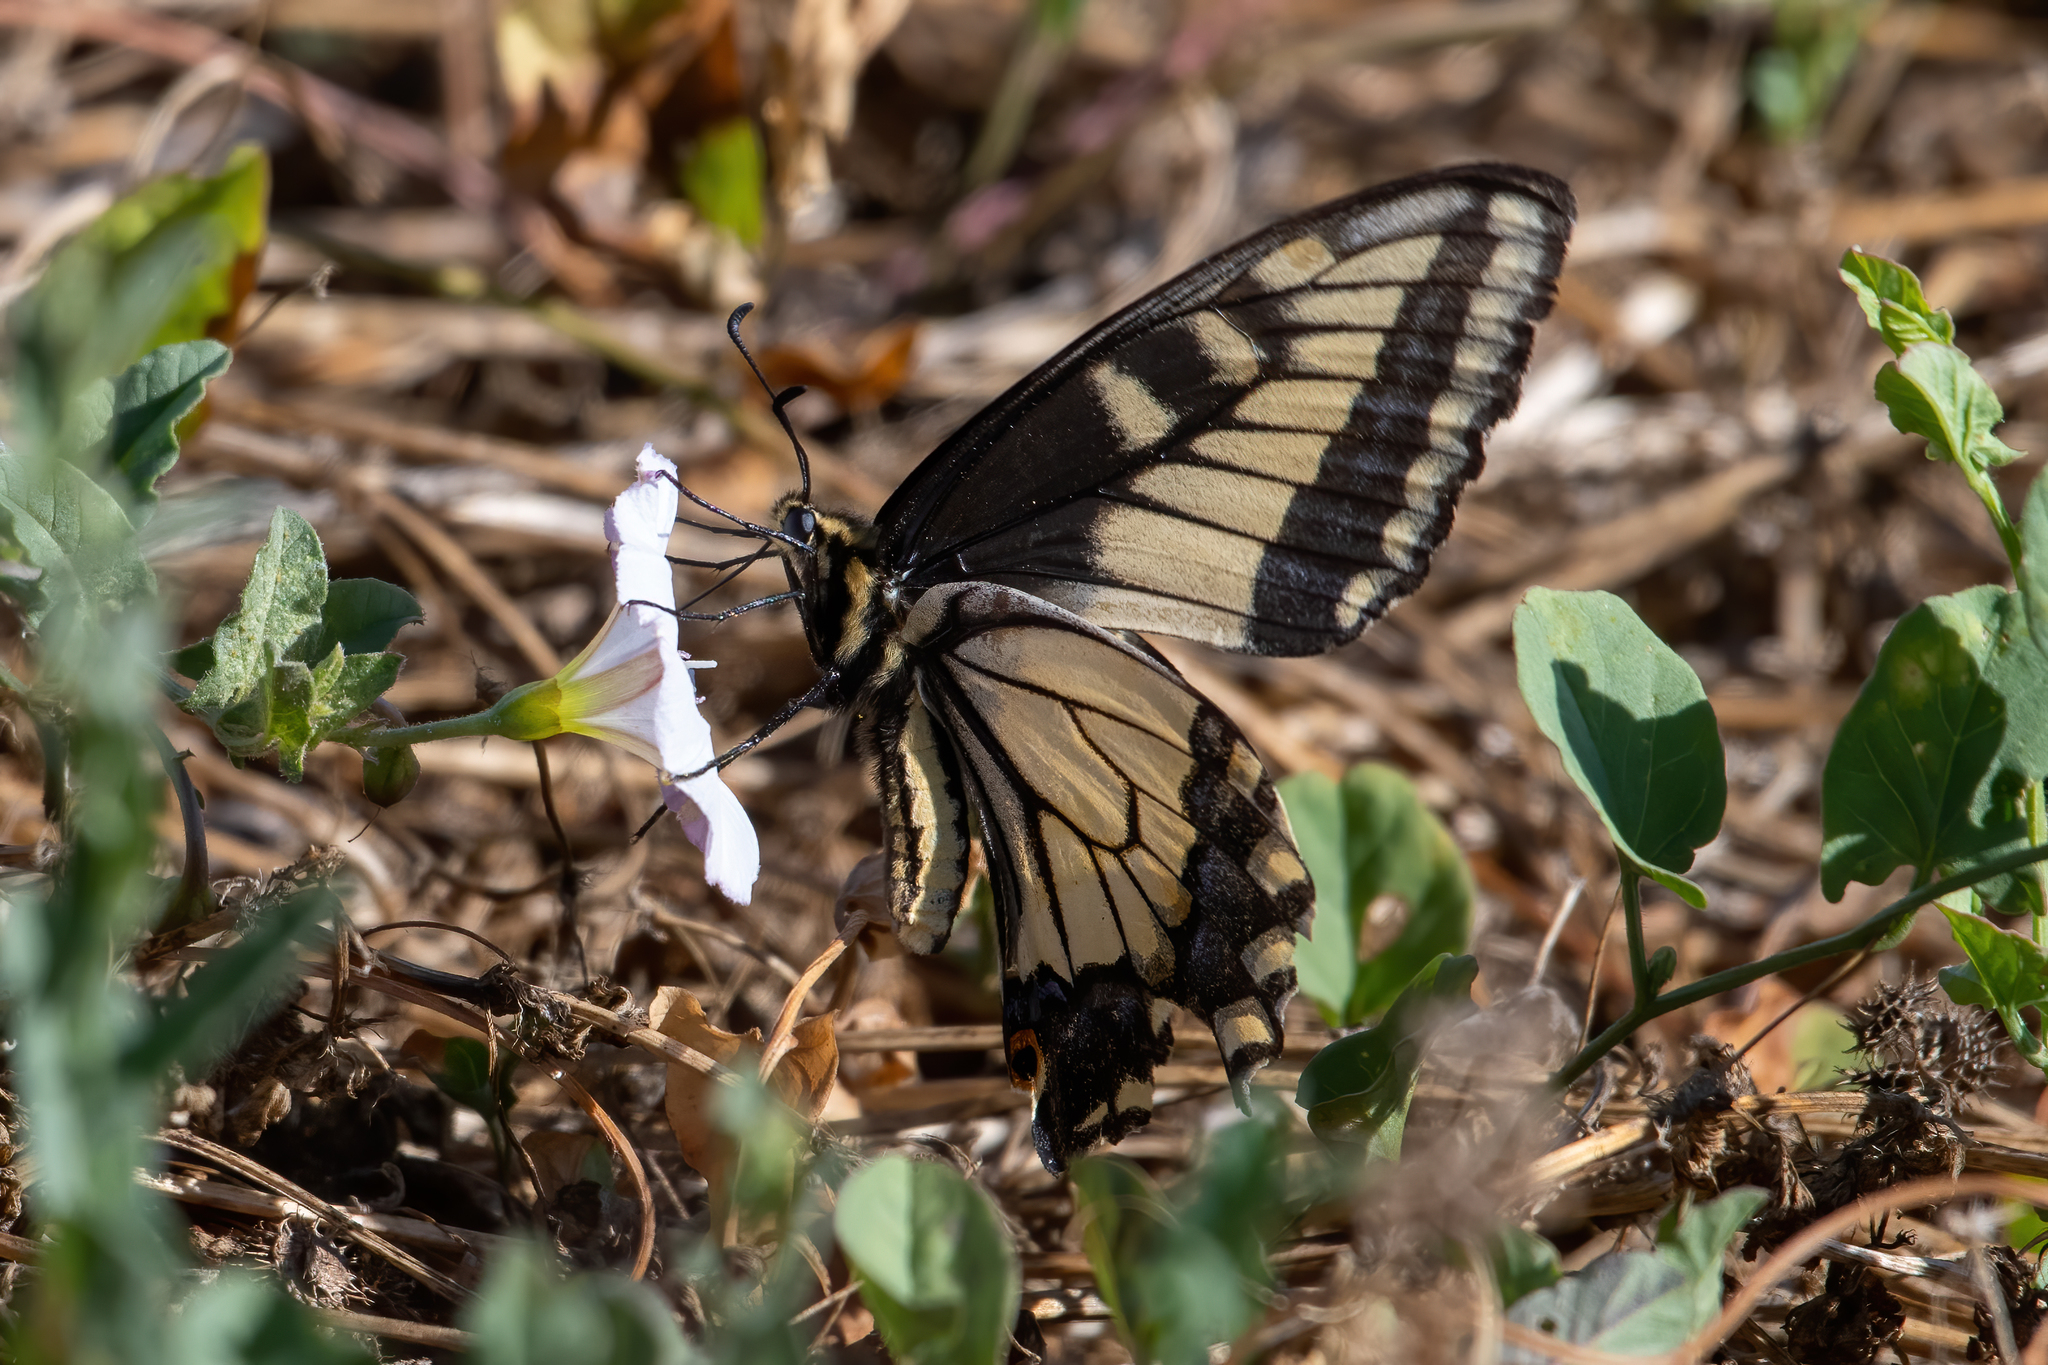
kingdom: Animalia
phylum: Arthropoda
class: Insecta
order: Lepidoptera
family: Papilionidae
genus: Papilio
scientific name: Papilio zelicaon
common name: Anise swallowtail
